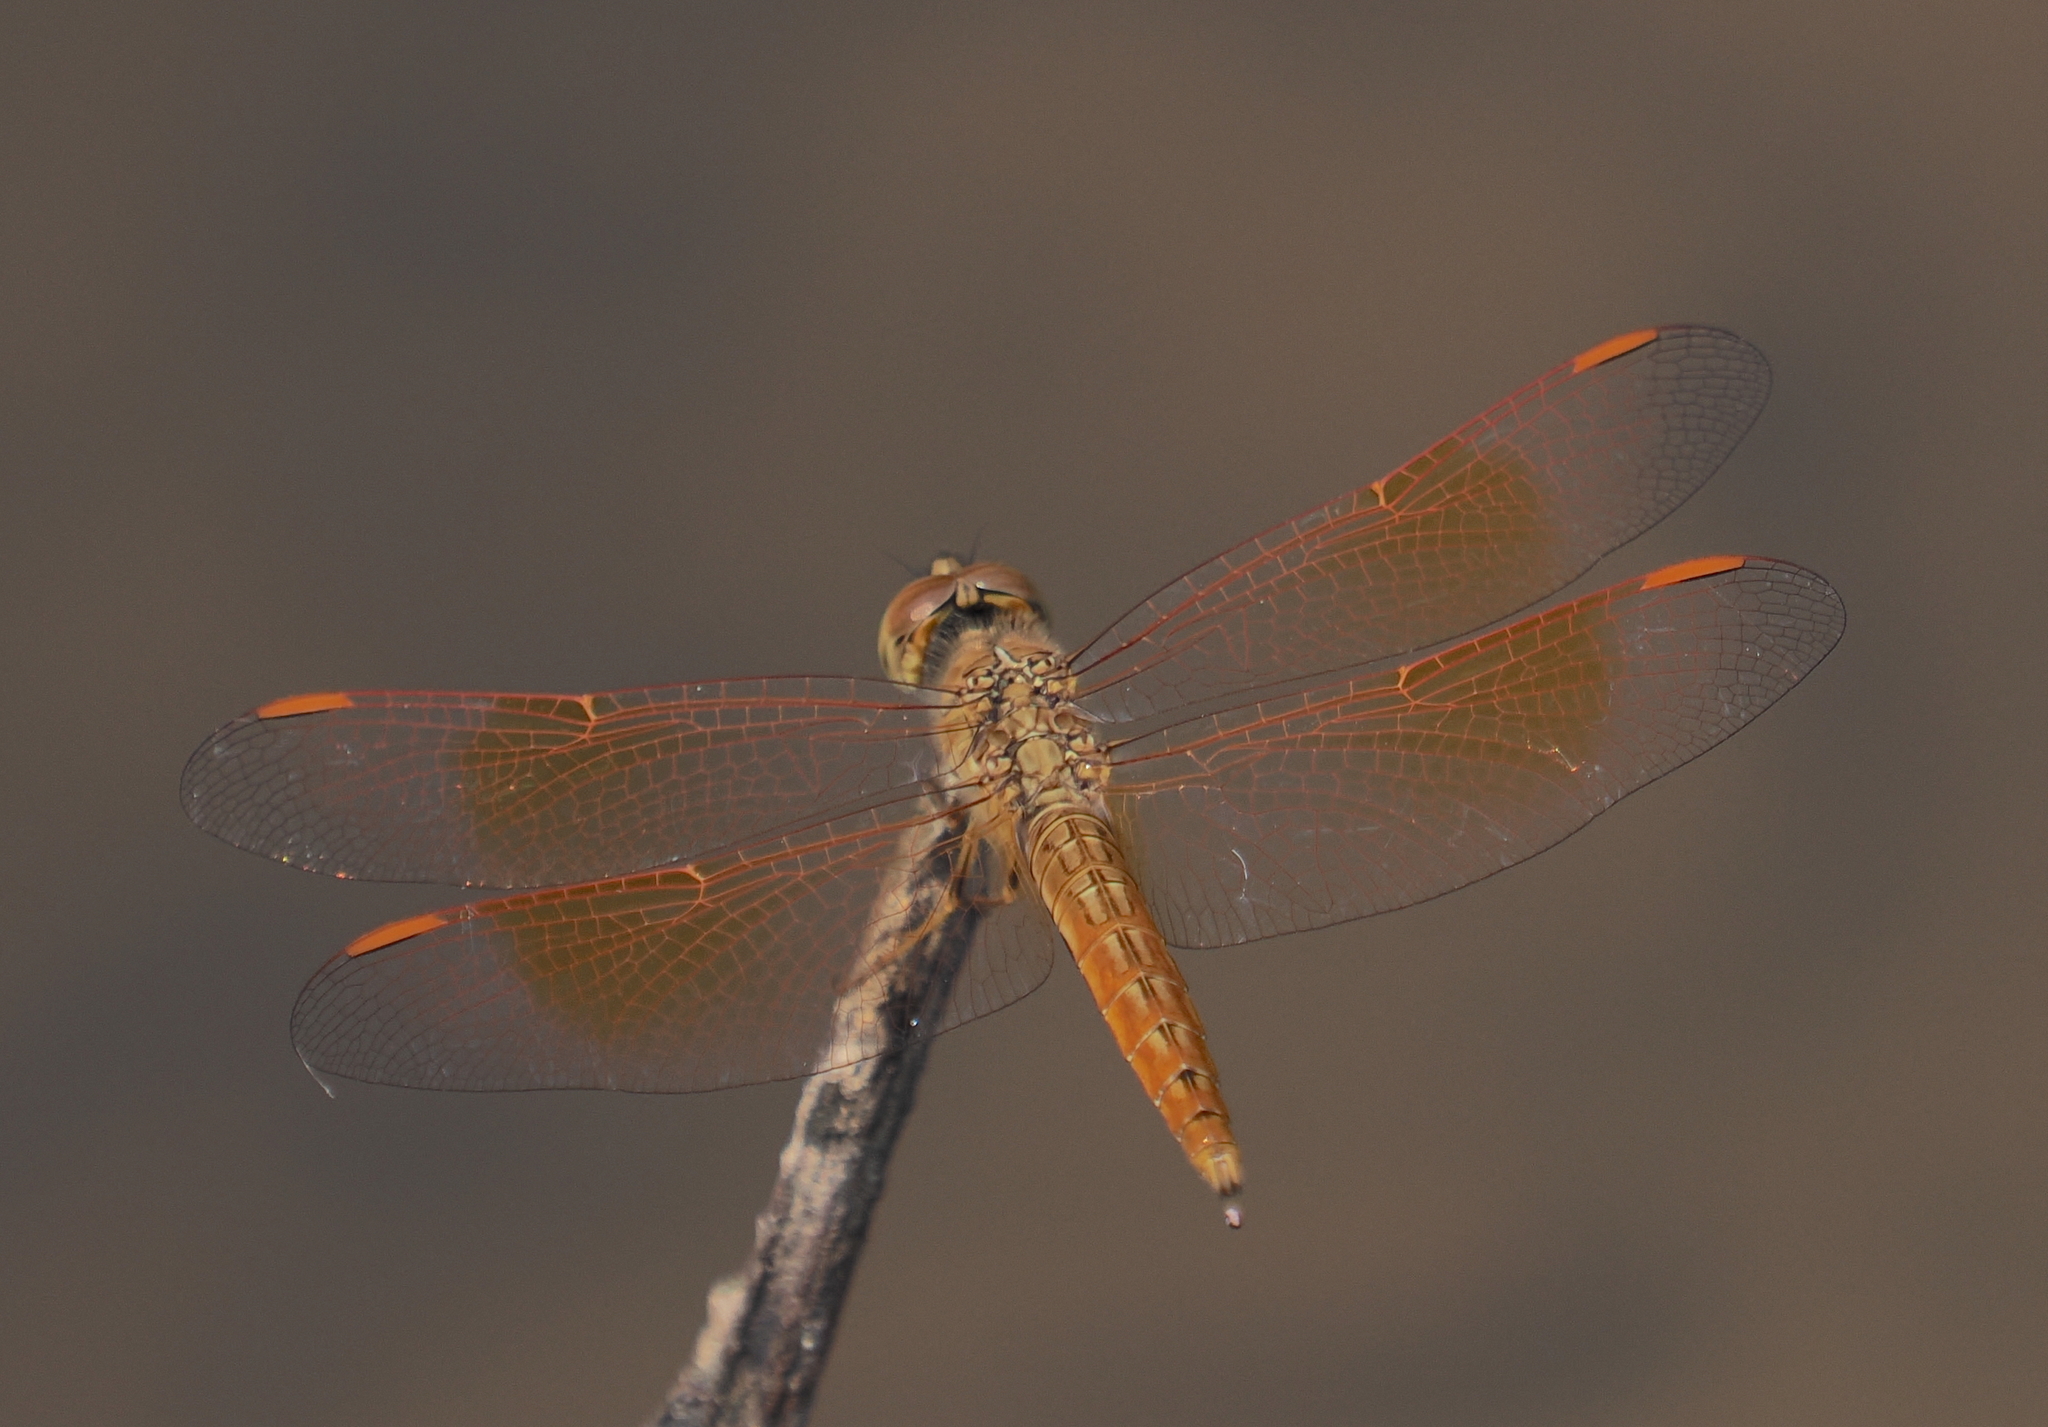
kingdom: Animalia
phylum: Arthropoda
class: Insecta
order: Odonata
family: Libellulidae
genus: Brachythemis
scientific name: Brachythemis contaminata
